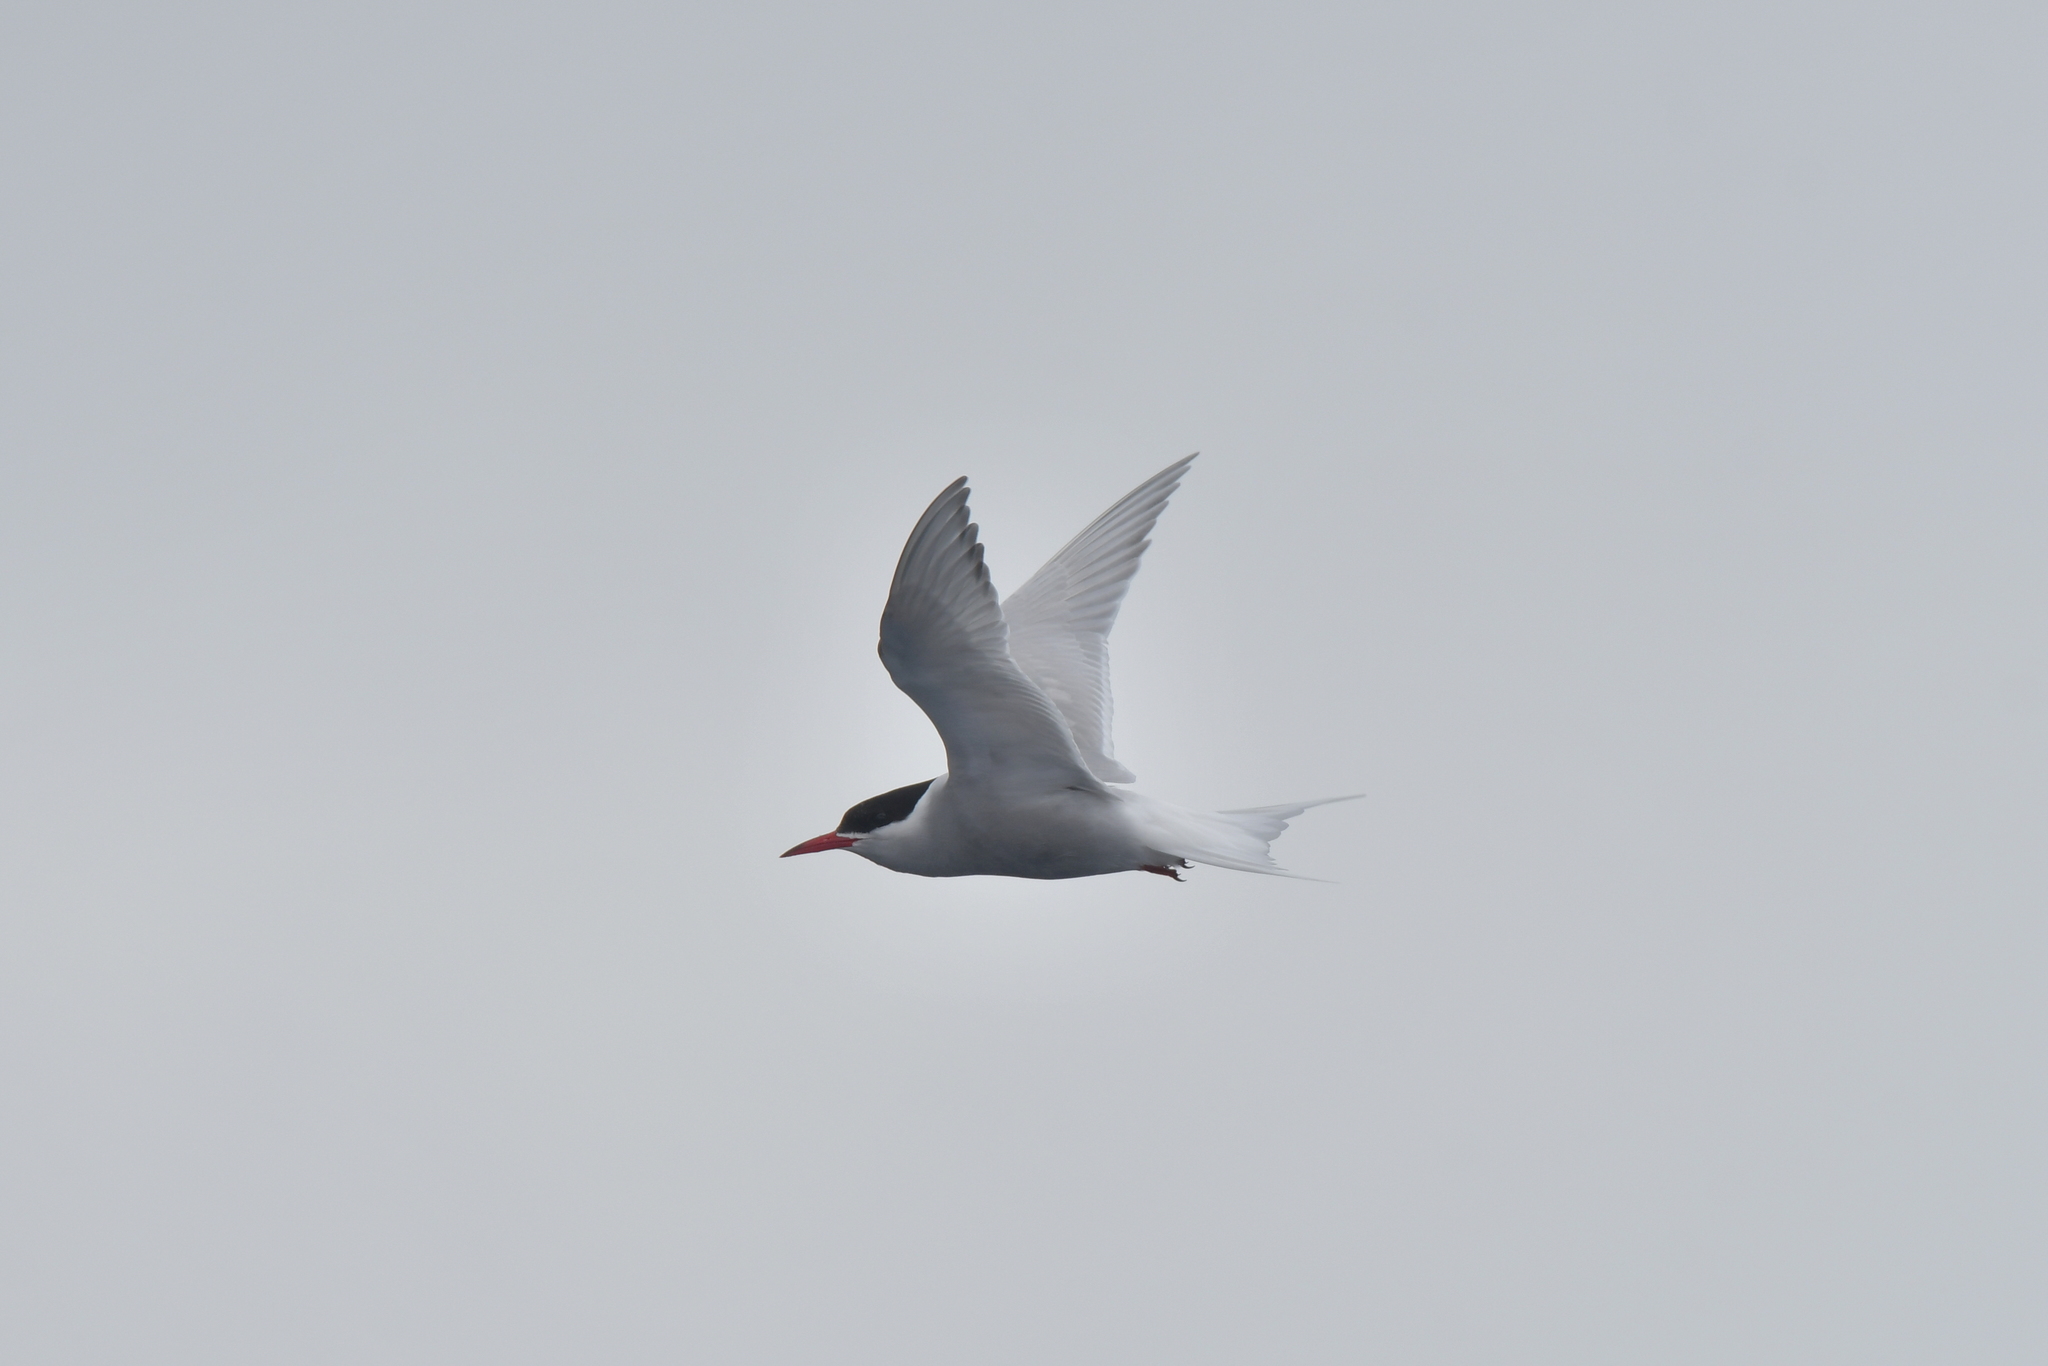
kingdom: Animalia
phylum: Chordata
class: Aves
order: Charadriiformes
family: Laridae
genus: Sterna
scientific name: Sterna vittata
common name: Antarctic tern
